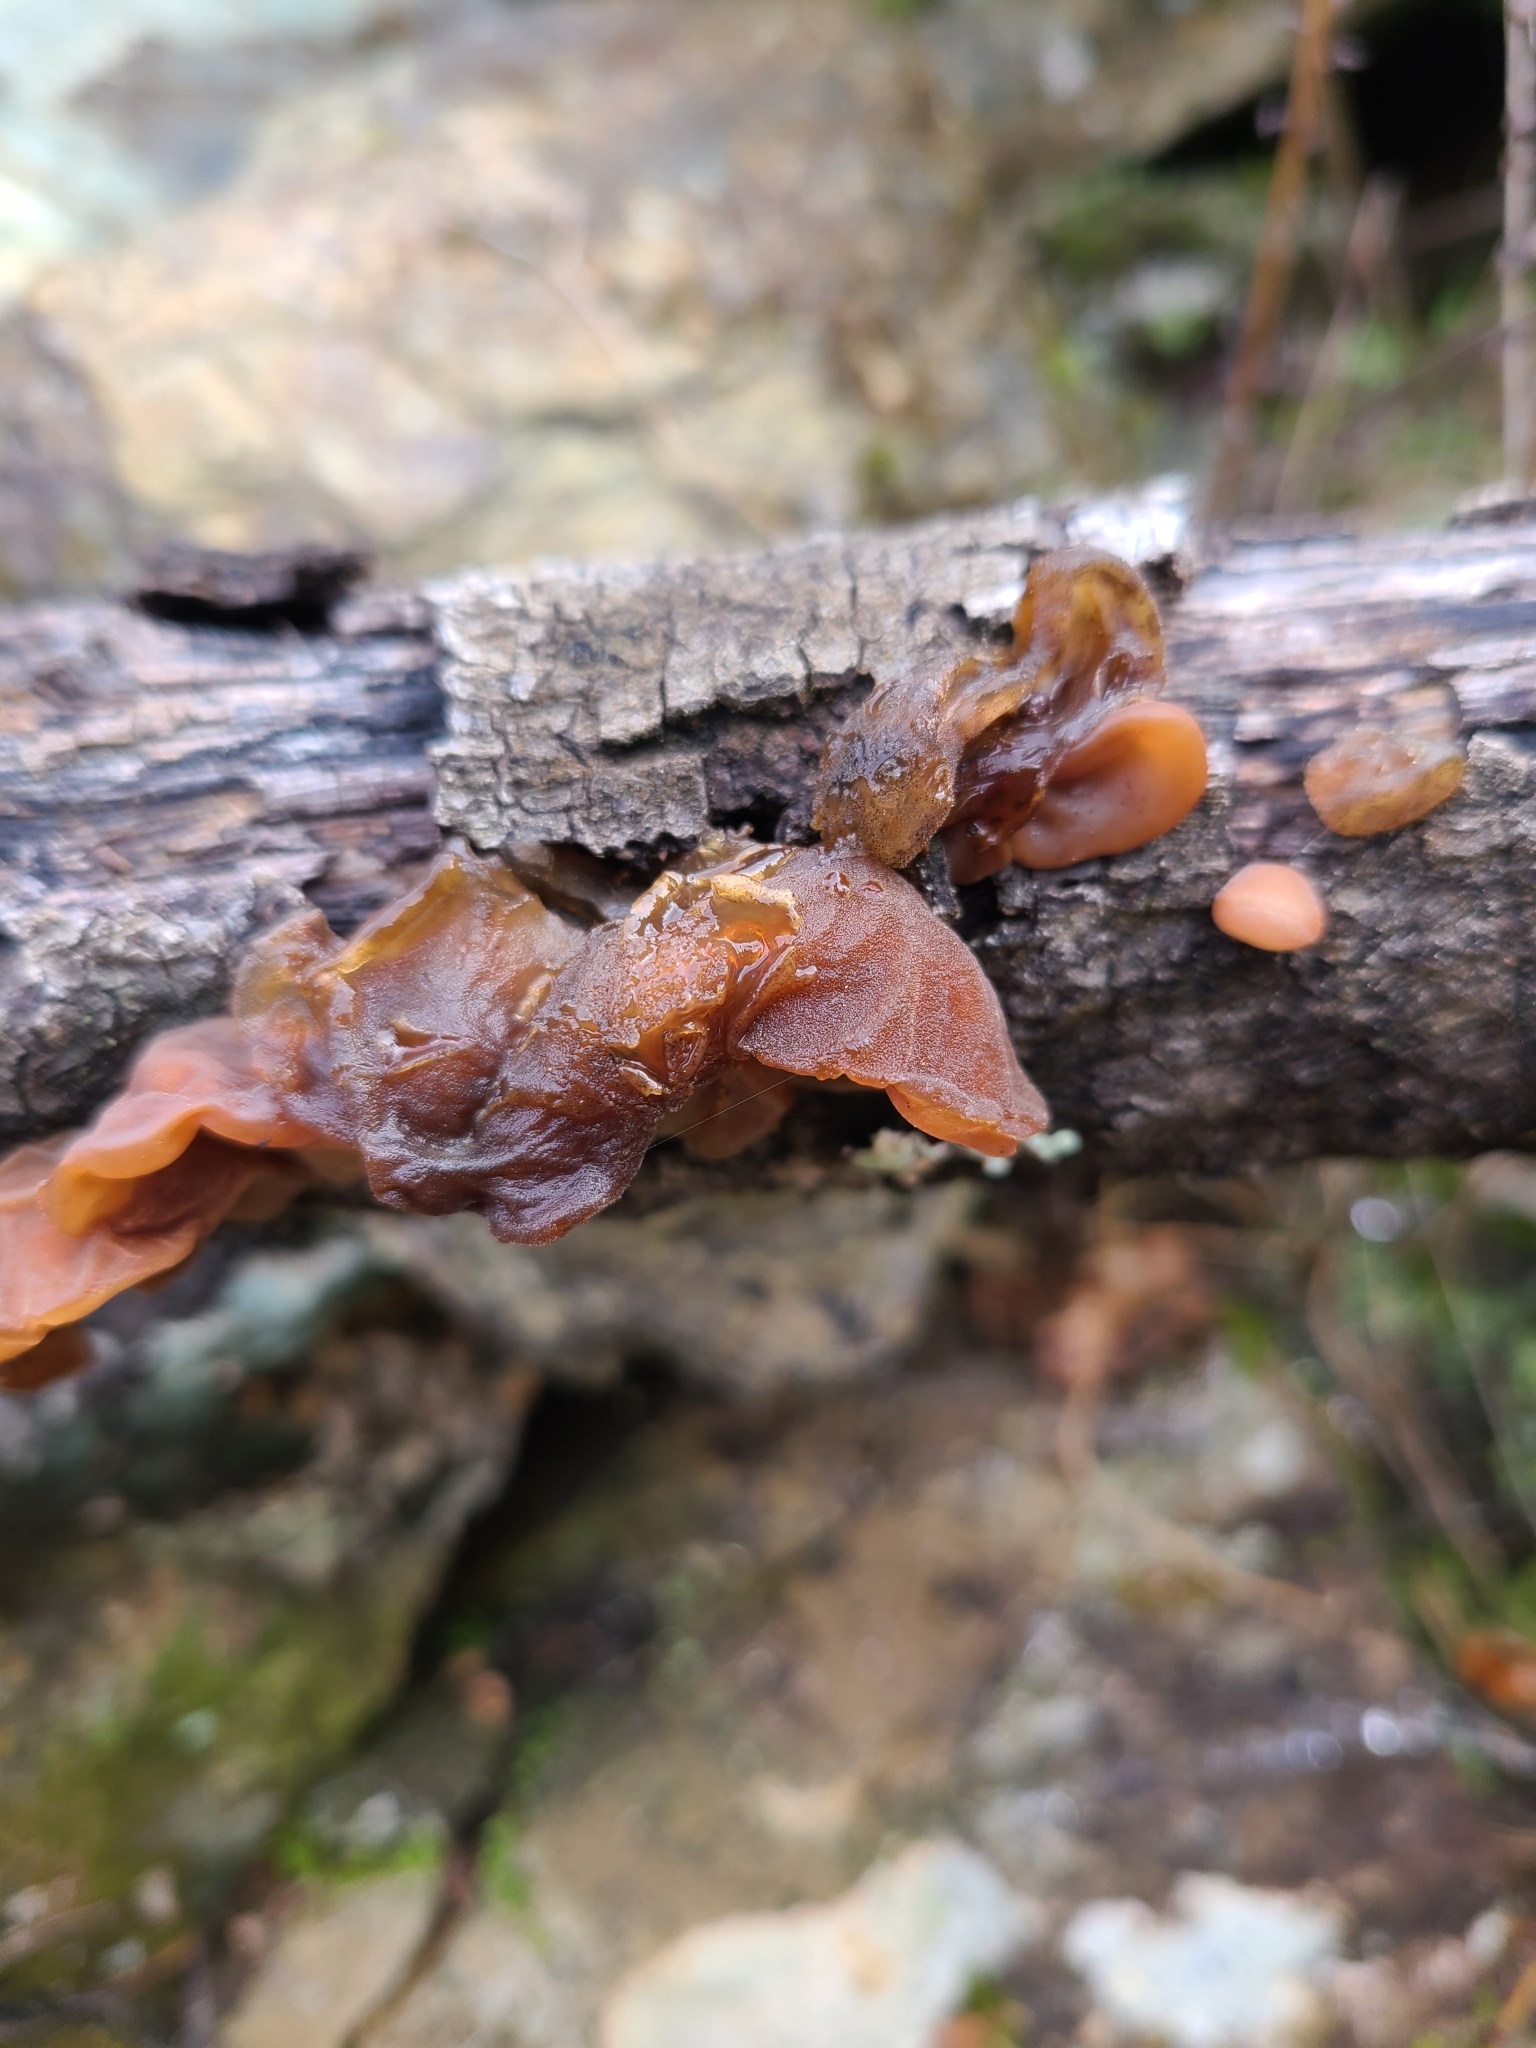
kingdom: Fungi
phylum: Basidiomycota
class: Agaricomycetes
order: Auriculariales
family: Auriculariaceae
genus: Auricularia
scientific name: Auricularia auricula-judae
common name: Jelly ear
